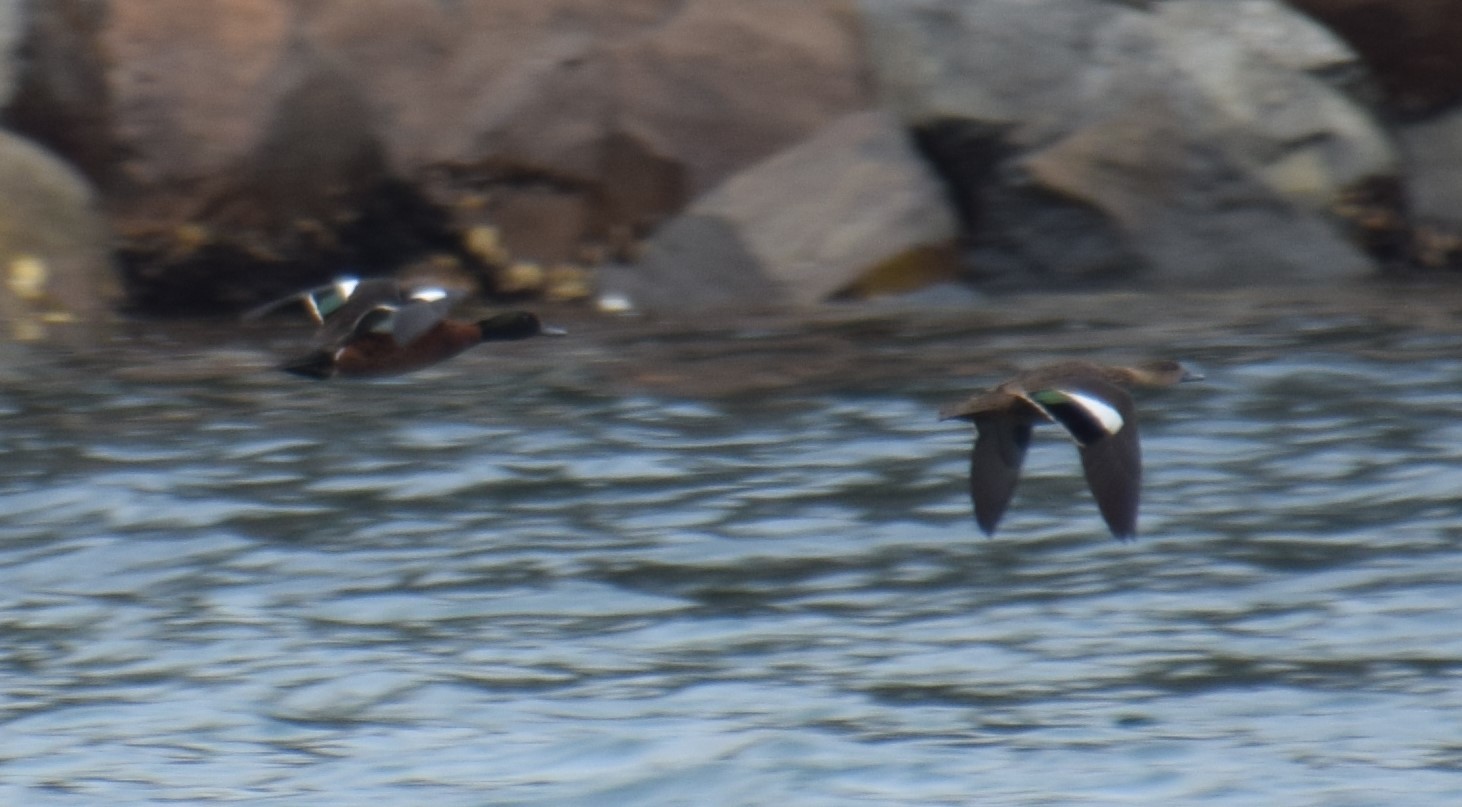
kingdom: Animalia
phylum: Chordata
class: Aves
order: Anseriformes
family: Anatidae
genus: Anas
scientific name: Anas castanea
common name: Chestnut teal
